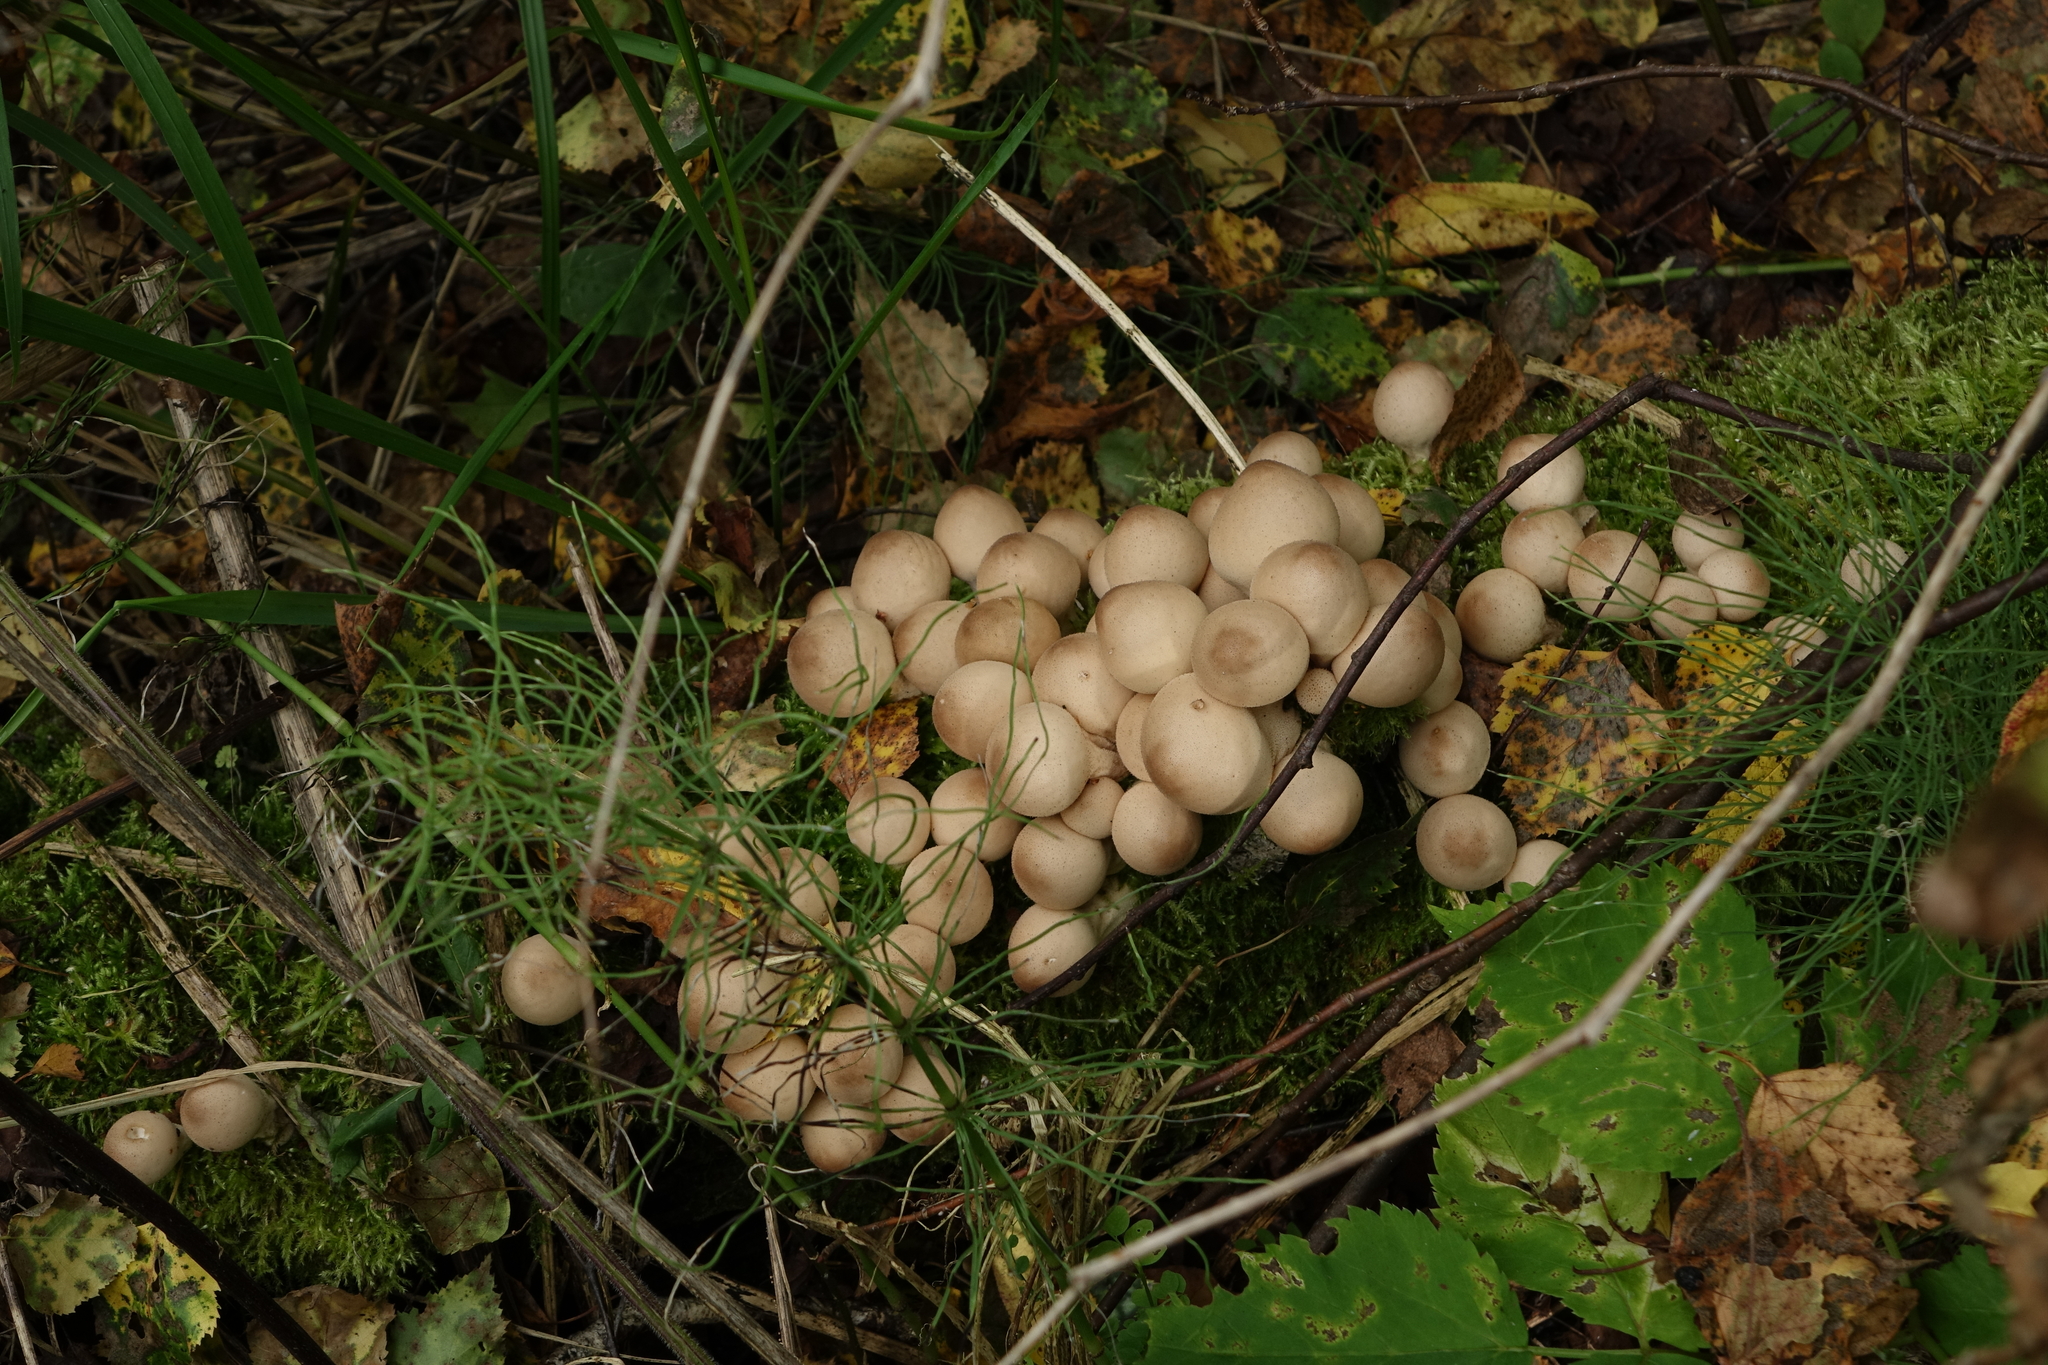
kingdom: Plantae
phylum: Tracheophyta
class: Polypodiopsida
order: Equisetales
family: Equisetaceae
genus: Equisetum
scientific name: Equisetum pratense
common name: Meadow horsetail
